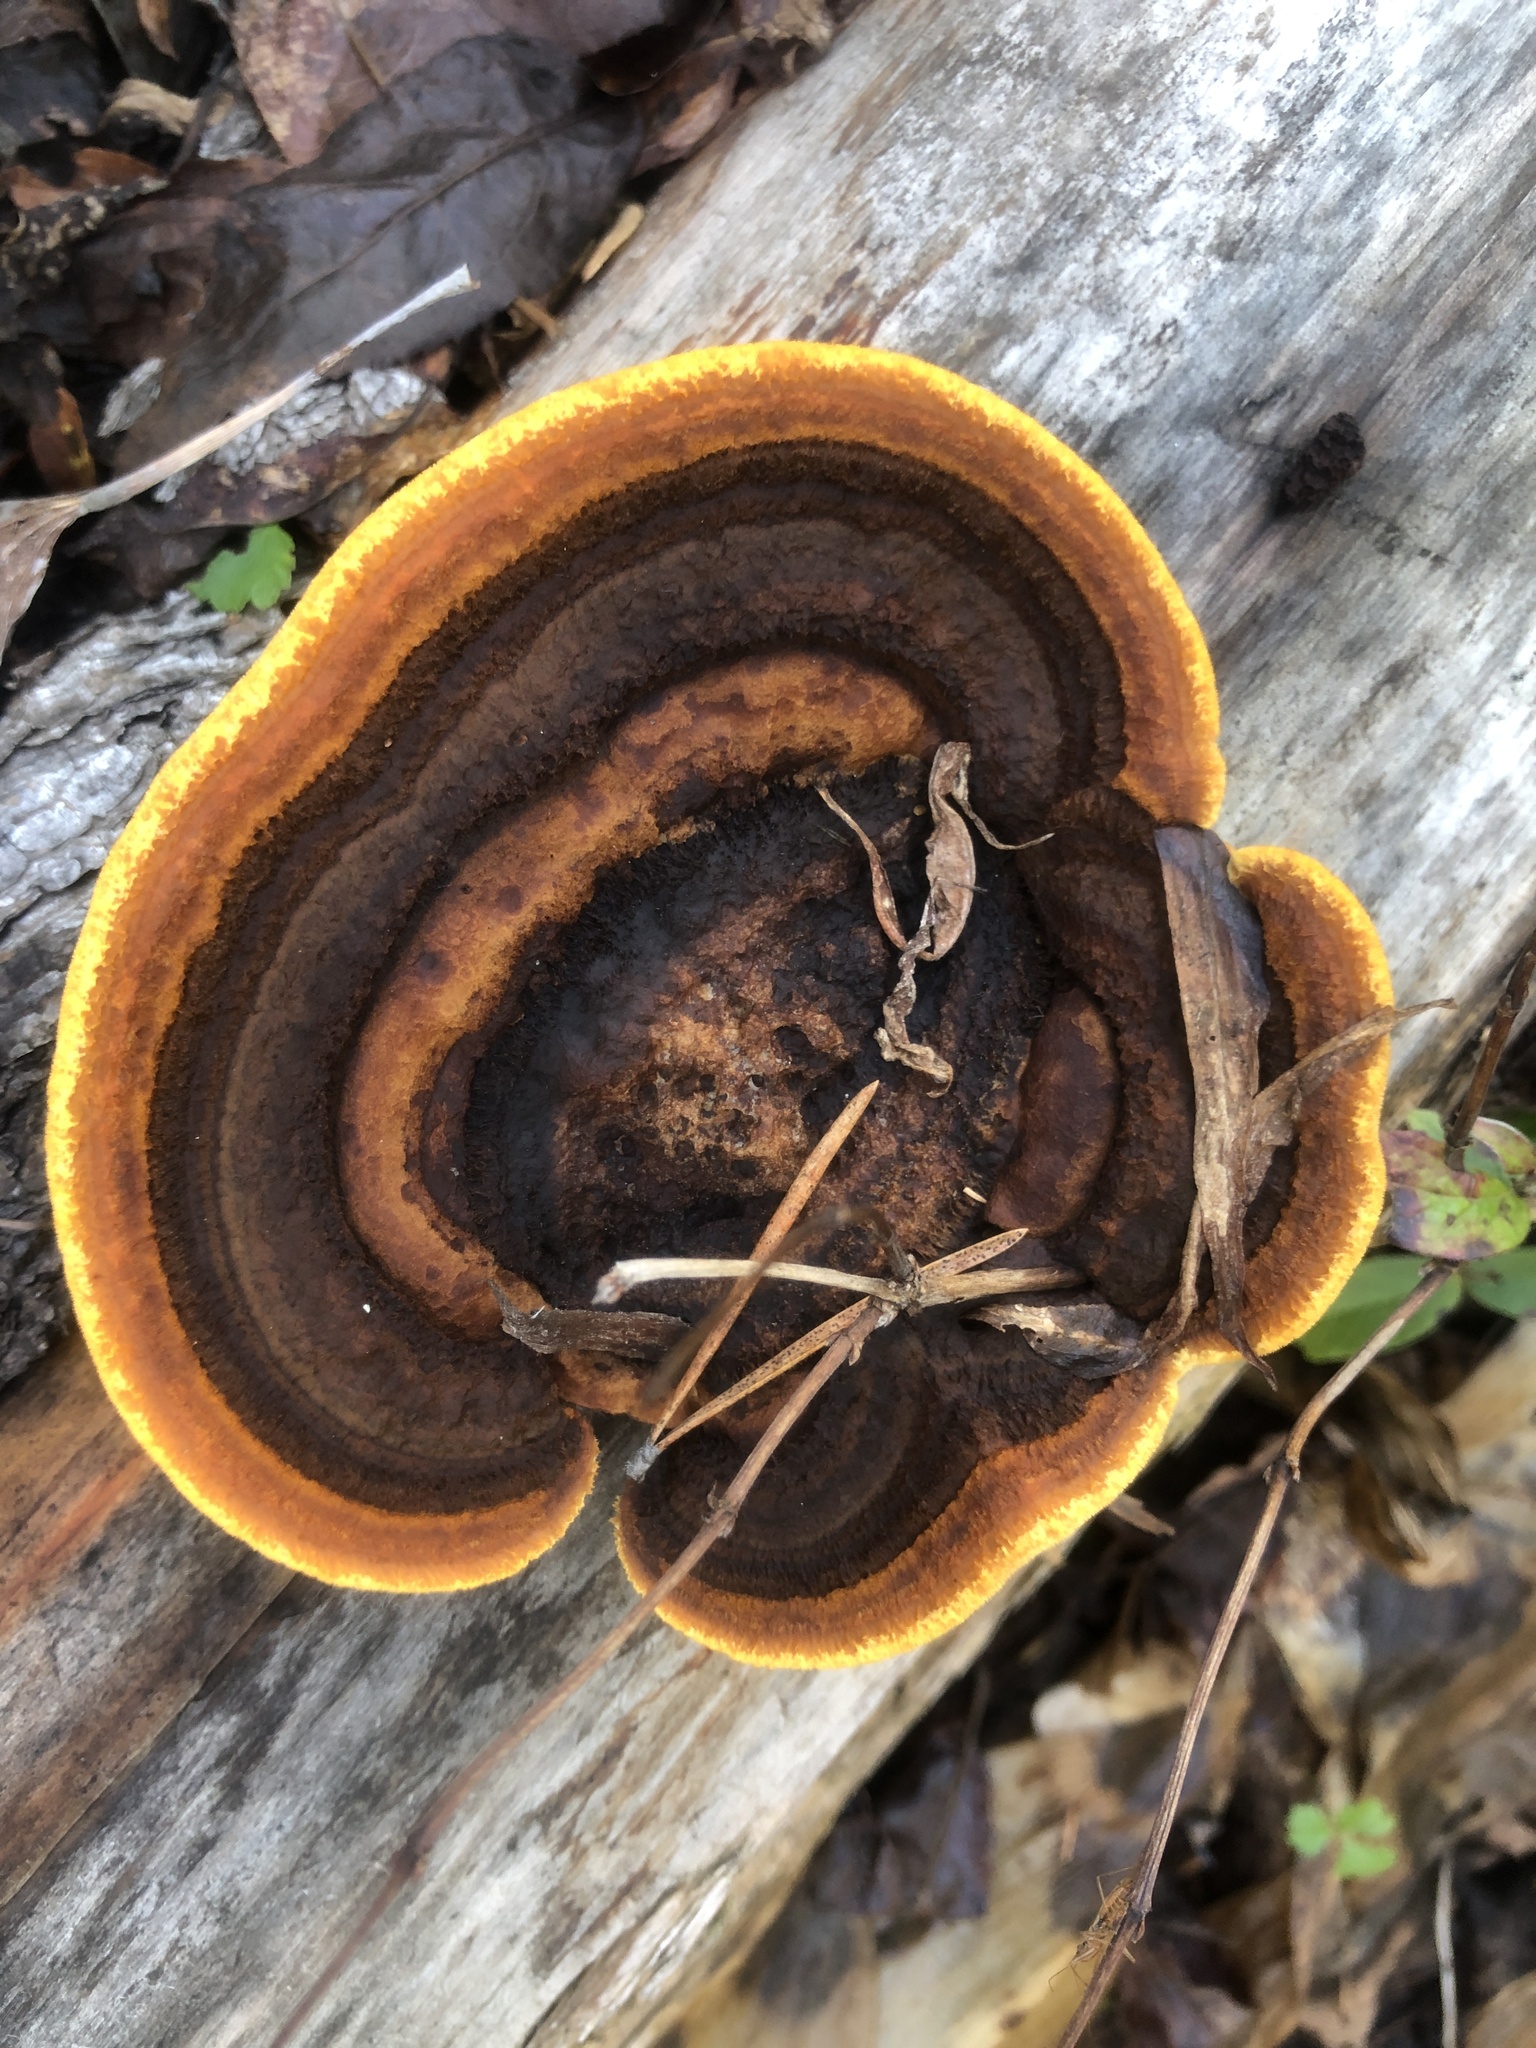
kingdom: Fungi
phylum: Basidiomycota
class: Agaricomycetes
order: Gloeophyllales
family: Gloeophyllaceae
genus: Gloeophyllum
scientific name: Gloeophyllum sepiarium
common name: Conifer mazegill
